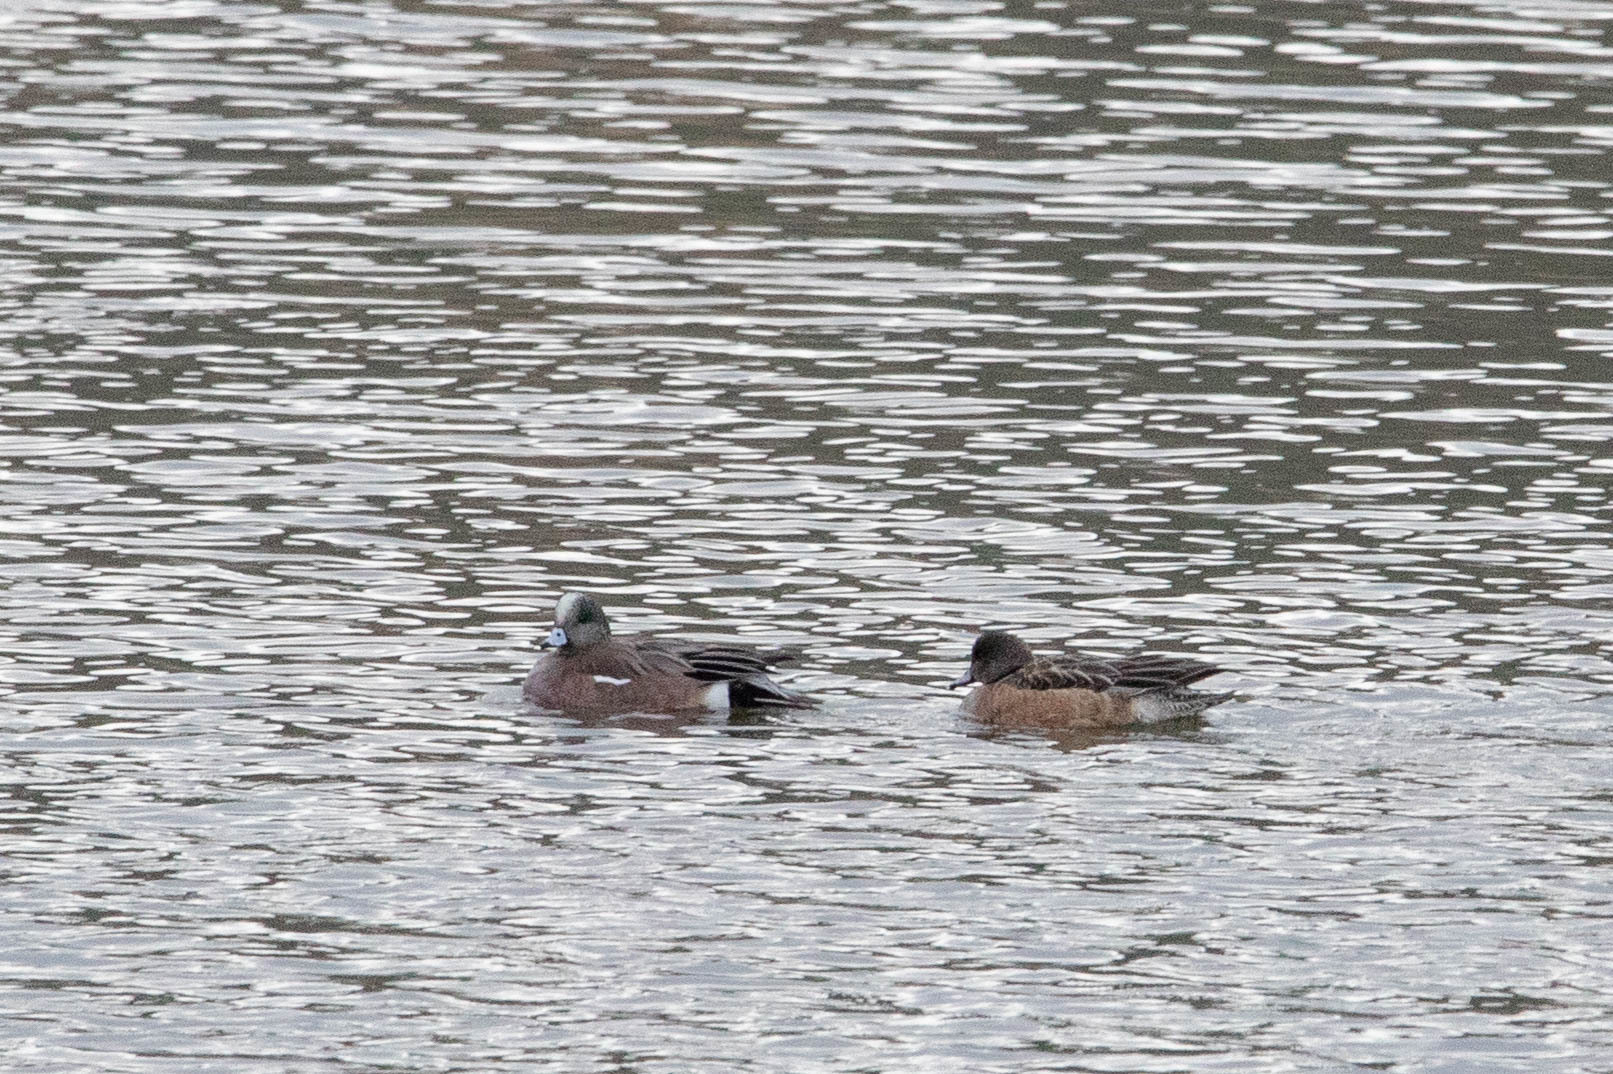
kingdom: Animalia
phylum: Chordata
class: Aves
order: Anseriformes
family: Anatidae
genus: Mareca
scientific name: Mareca americana
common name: American wigeon
